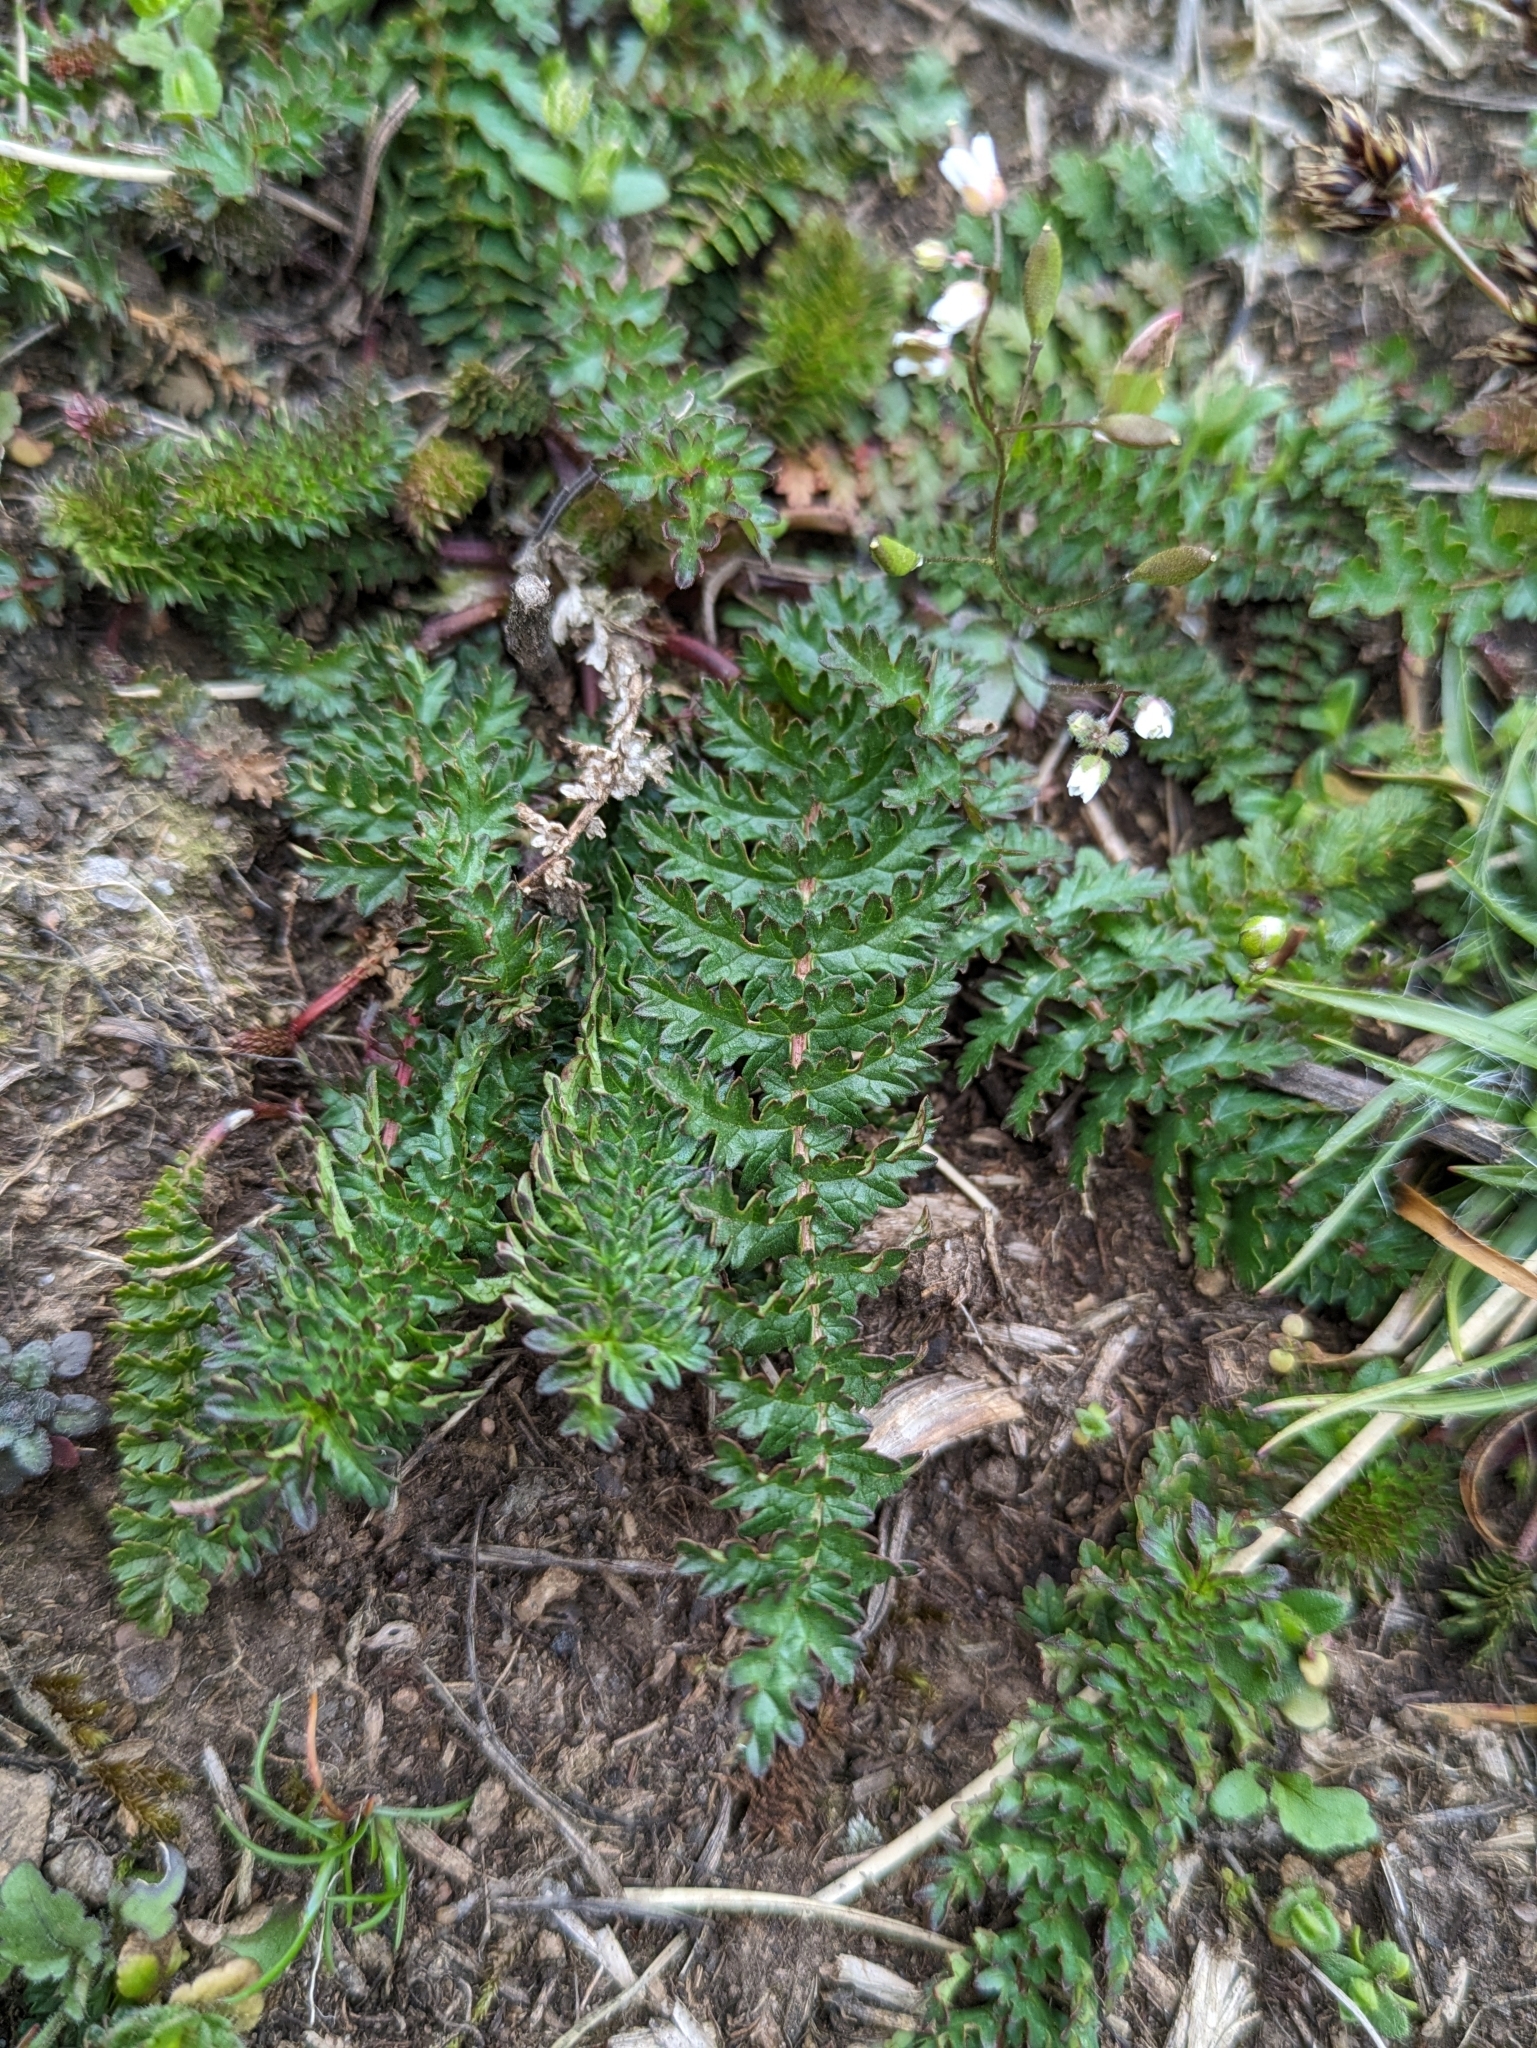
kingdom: Plantae
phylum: Tracheophyta
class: Magnoliopsida
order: Rosales
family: Rosaceae
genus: Filipendula
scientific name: Filipendula vulgaris
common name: Dropwort
